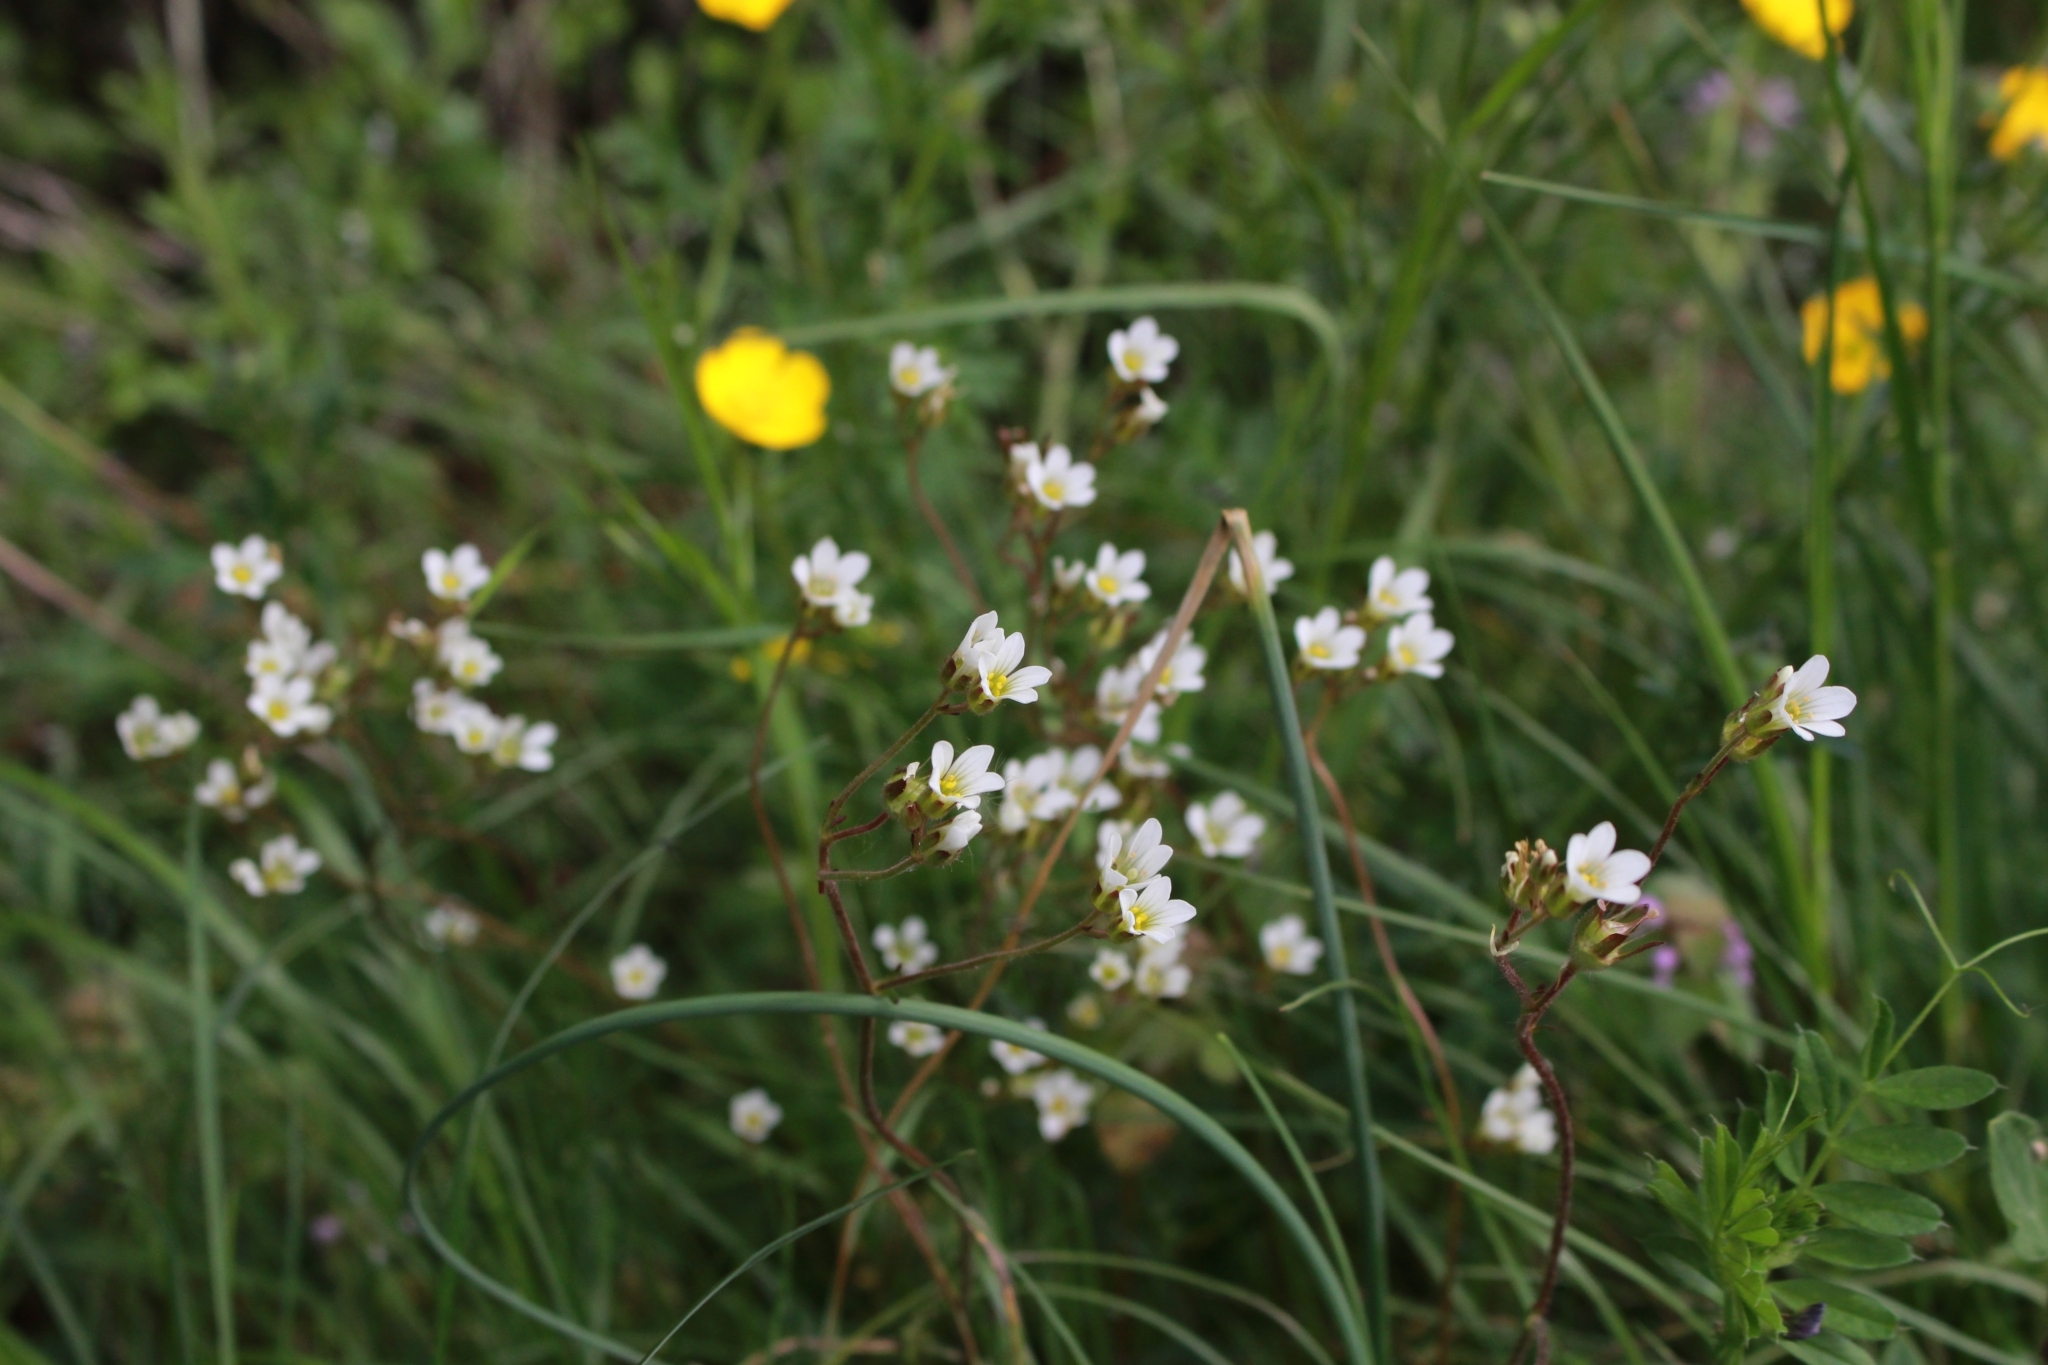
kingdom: Plantae
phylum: Tracheophyta
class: Magnoliopsida
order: Saxifragales
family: Saxifragaceae
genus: Saxifraga
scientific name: Saxifraga granulata
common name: Meadow saxifrage
